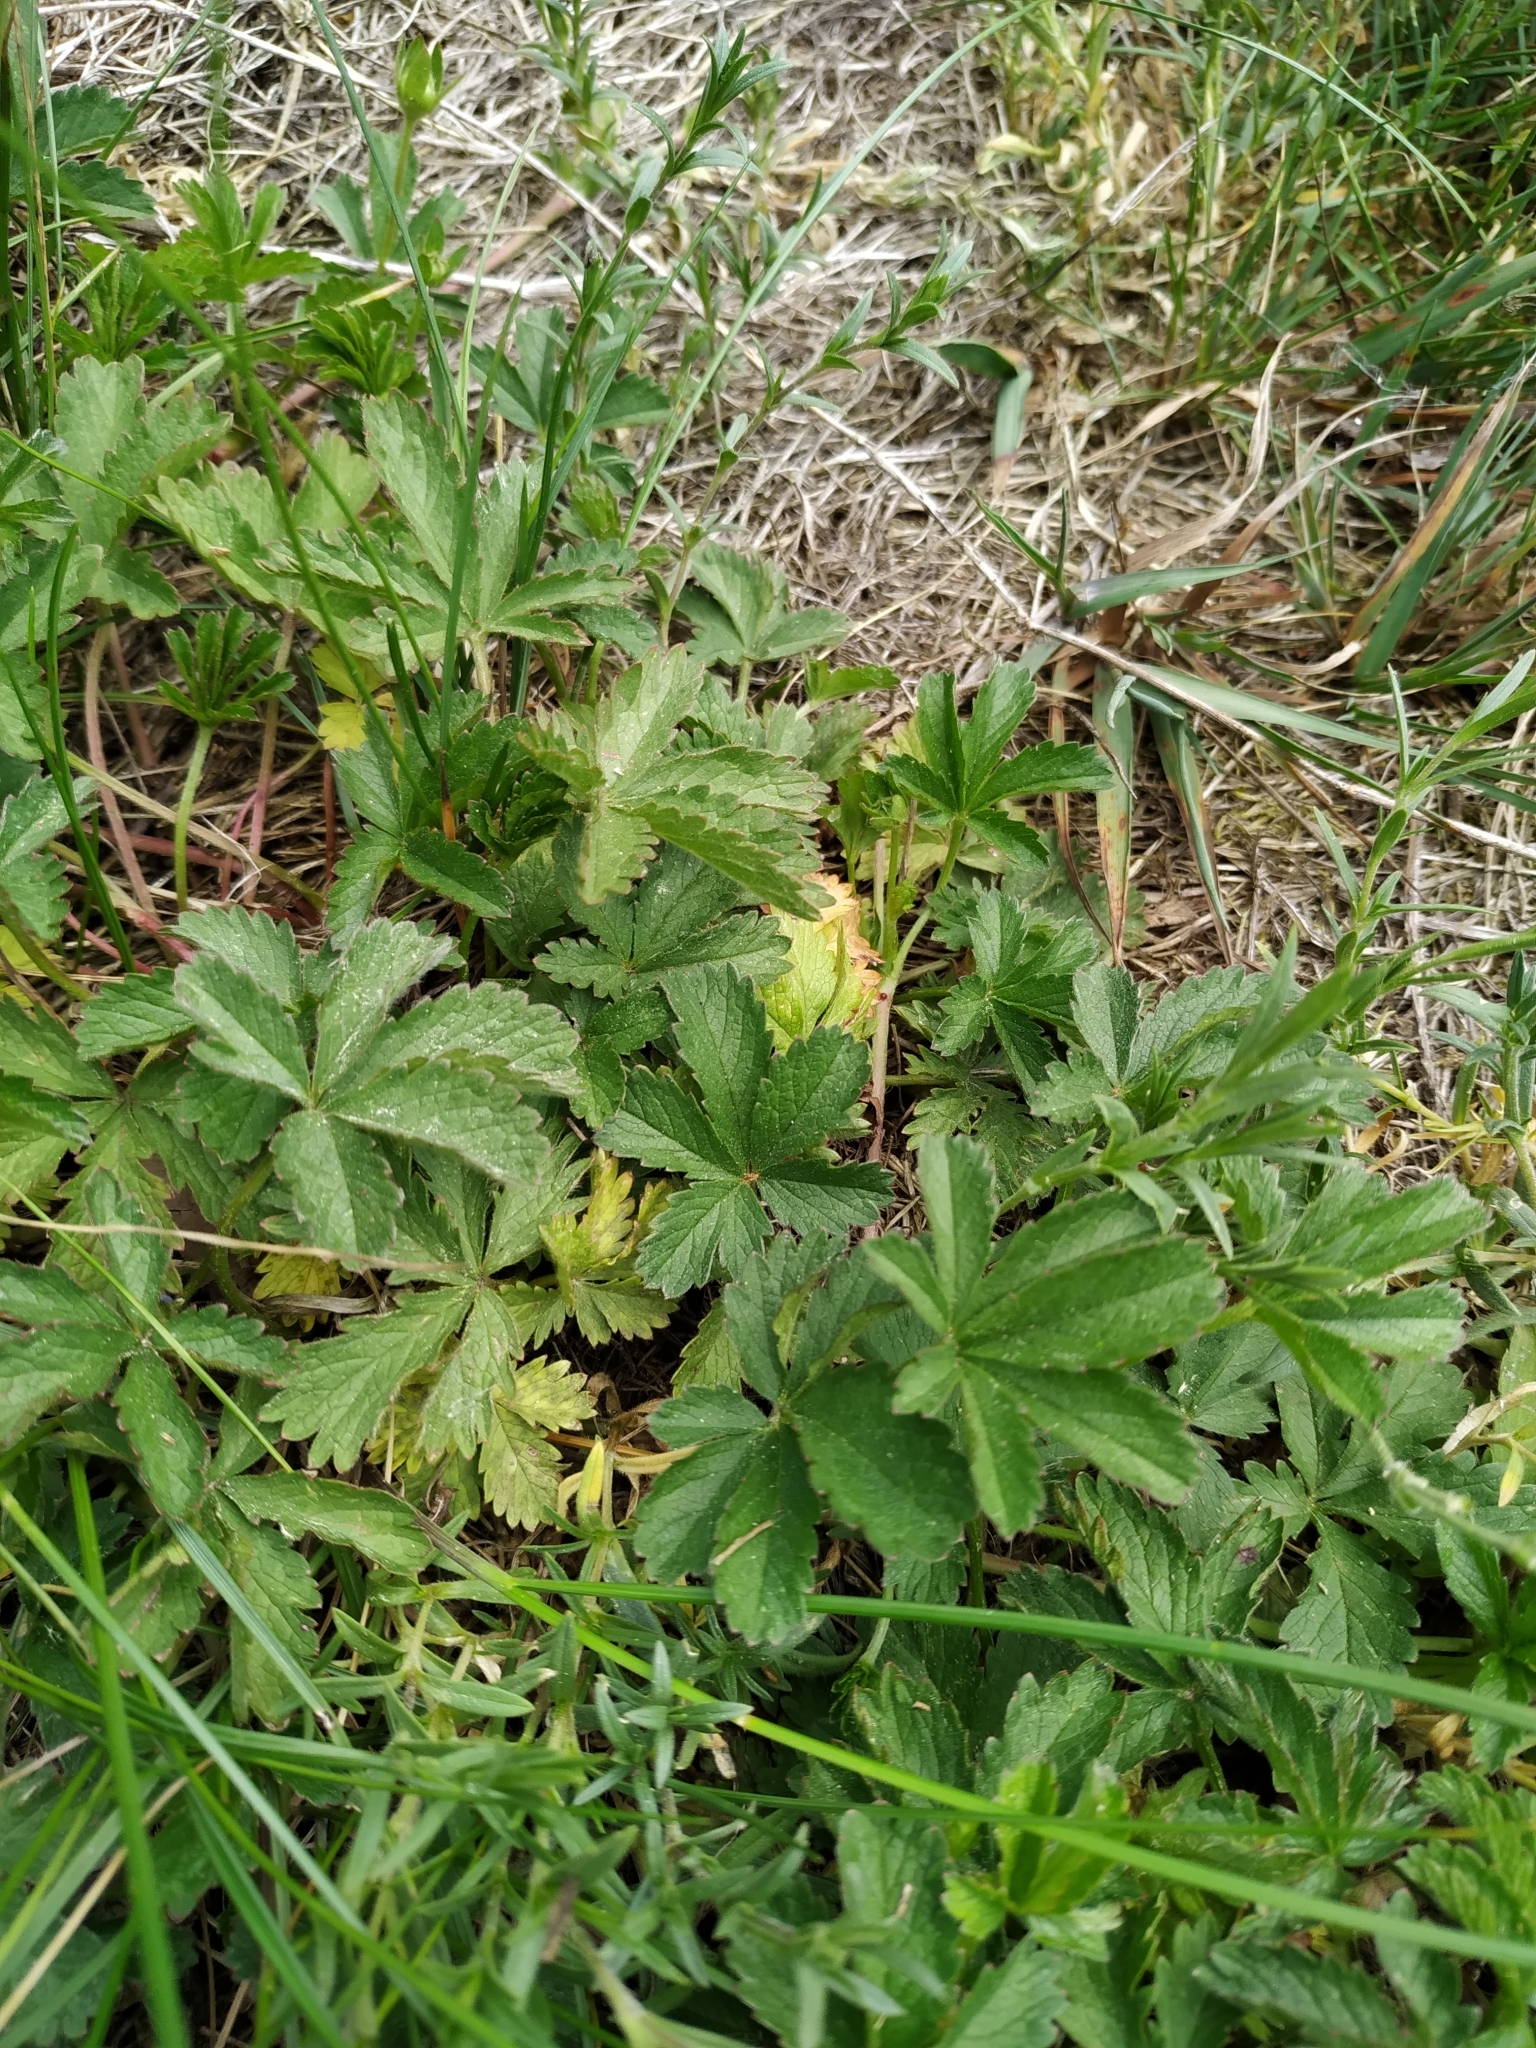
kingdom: Plantae
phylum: Tracheophyta
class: Magnoliopsida
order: Rosales
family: Rosaceae
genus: Potentilla
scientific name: Potentilla reptans
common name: Creeping cinquefoil
